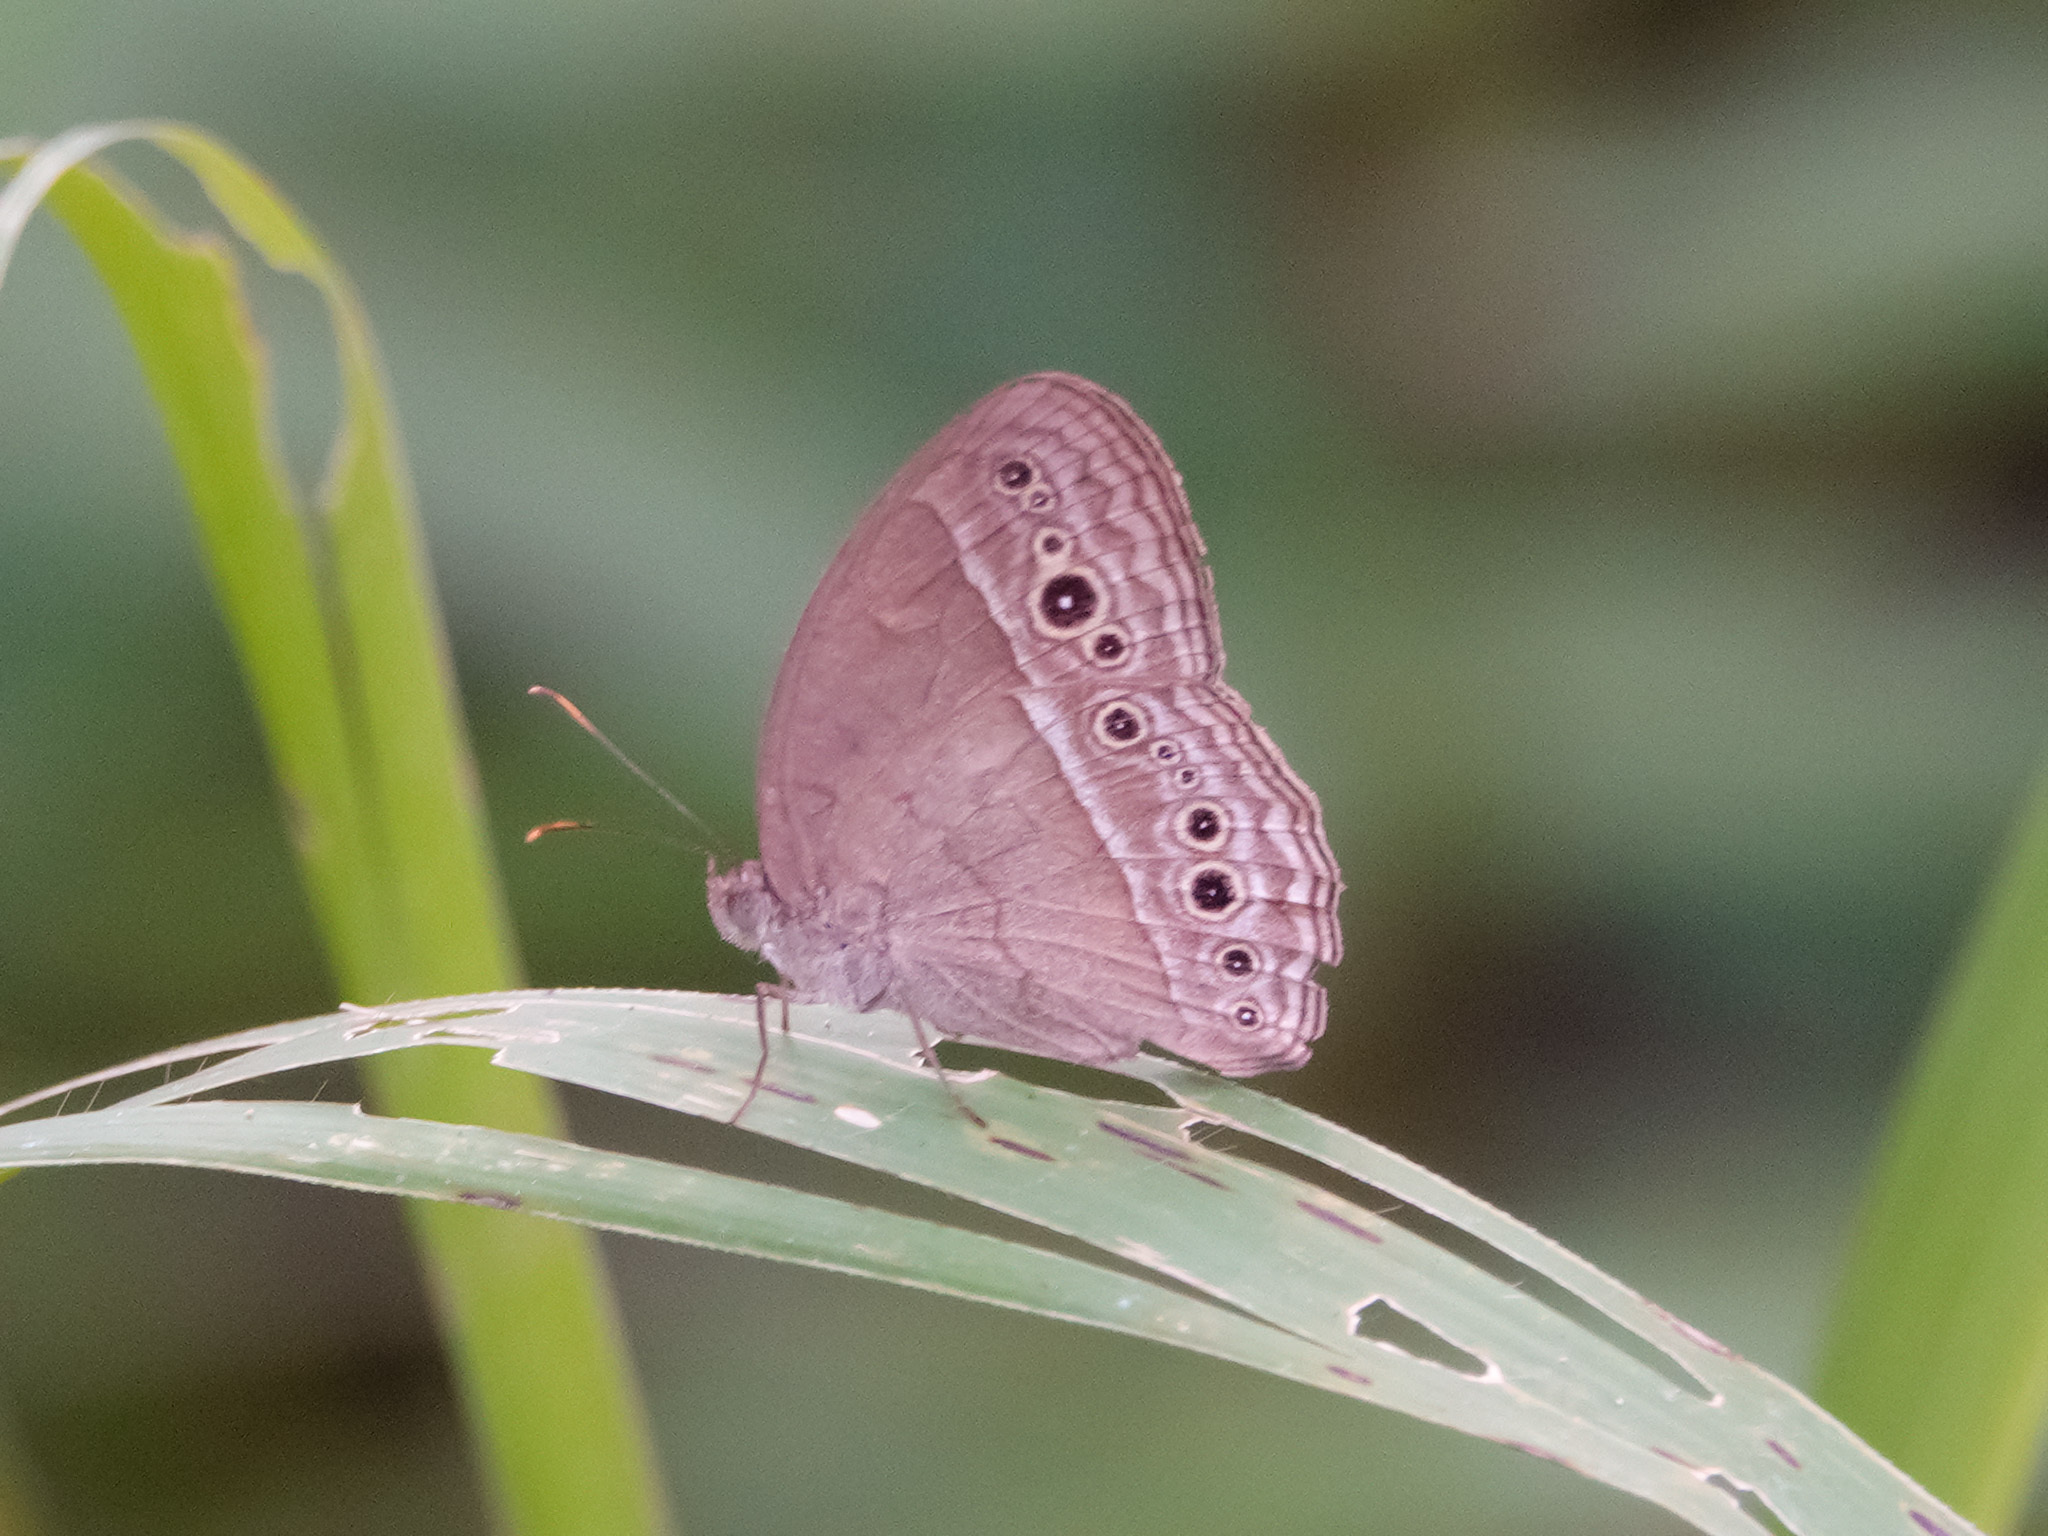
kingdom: Animalia
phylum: Arthropoda
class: Insecta
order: Lepidoptera
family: Nymphalidae
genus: Mycalesis
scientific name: Mycalesis perseoides
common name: Burmese bushbrown
